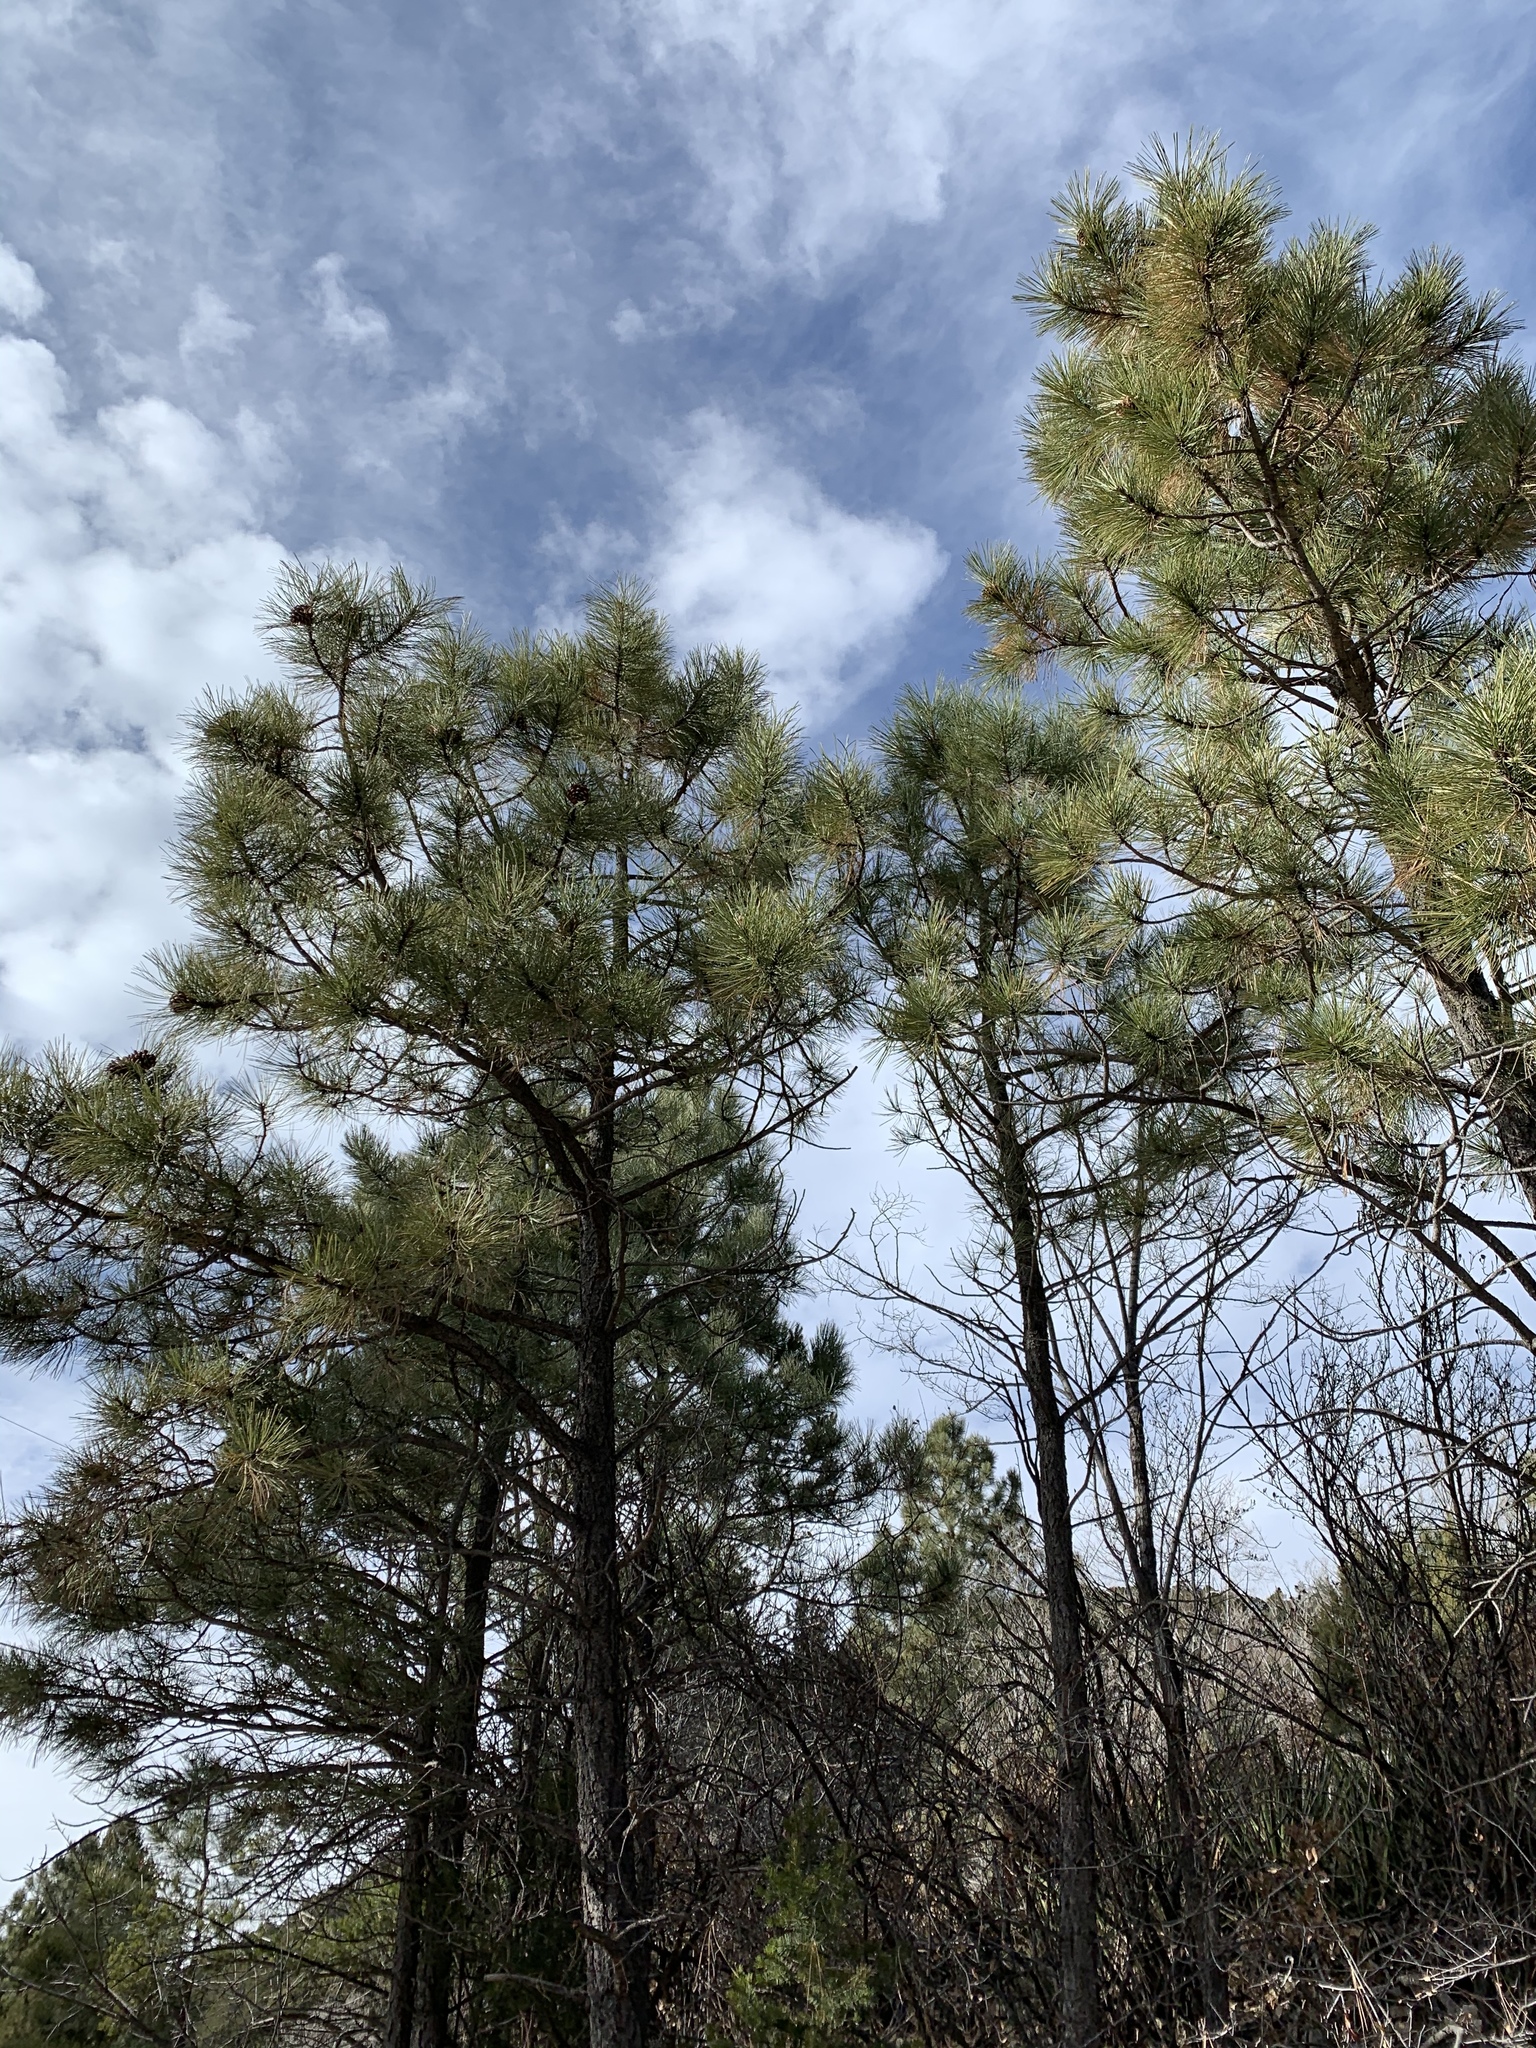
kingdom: Plantae
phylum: Tracheophyta
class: Pinopsida
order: Pinales
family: Pinaceae
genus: Pinus
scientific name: Pinus ponderosa
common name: Western yellow-pine
